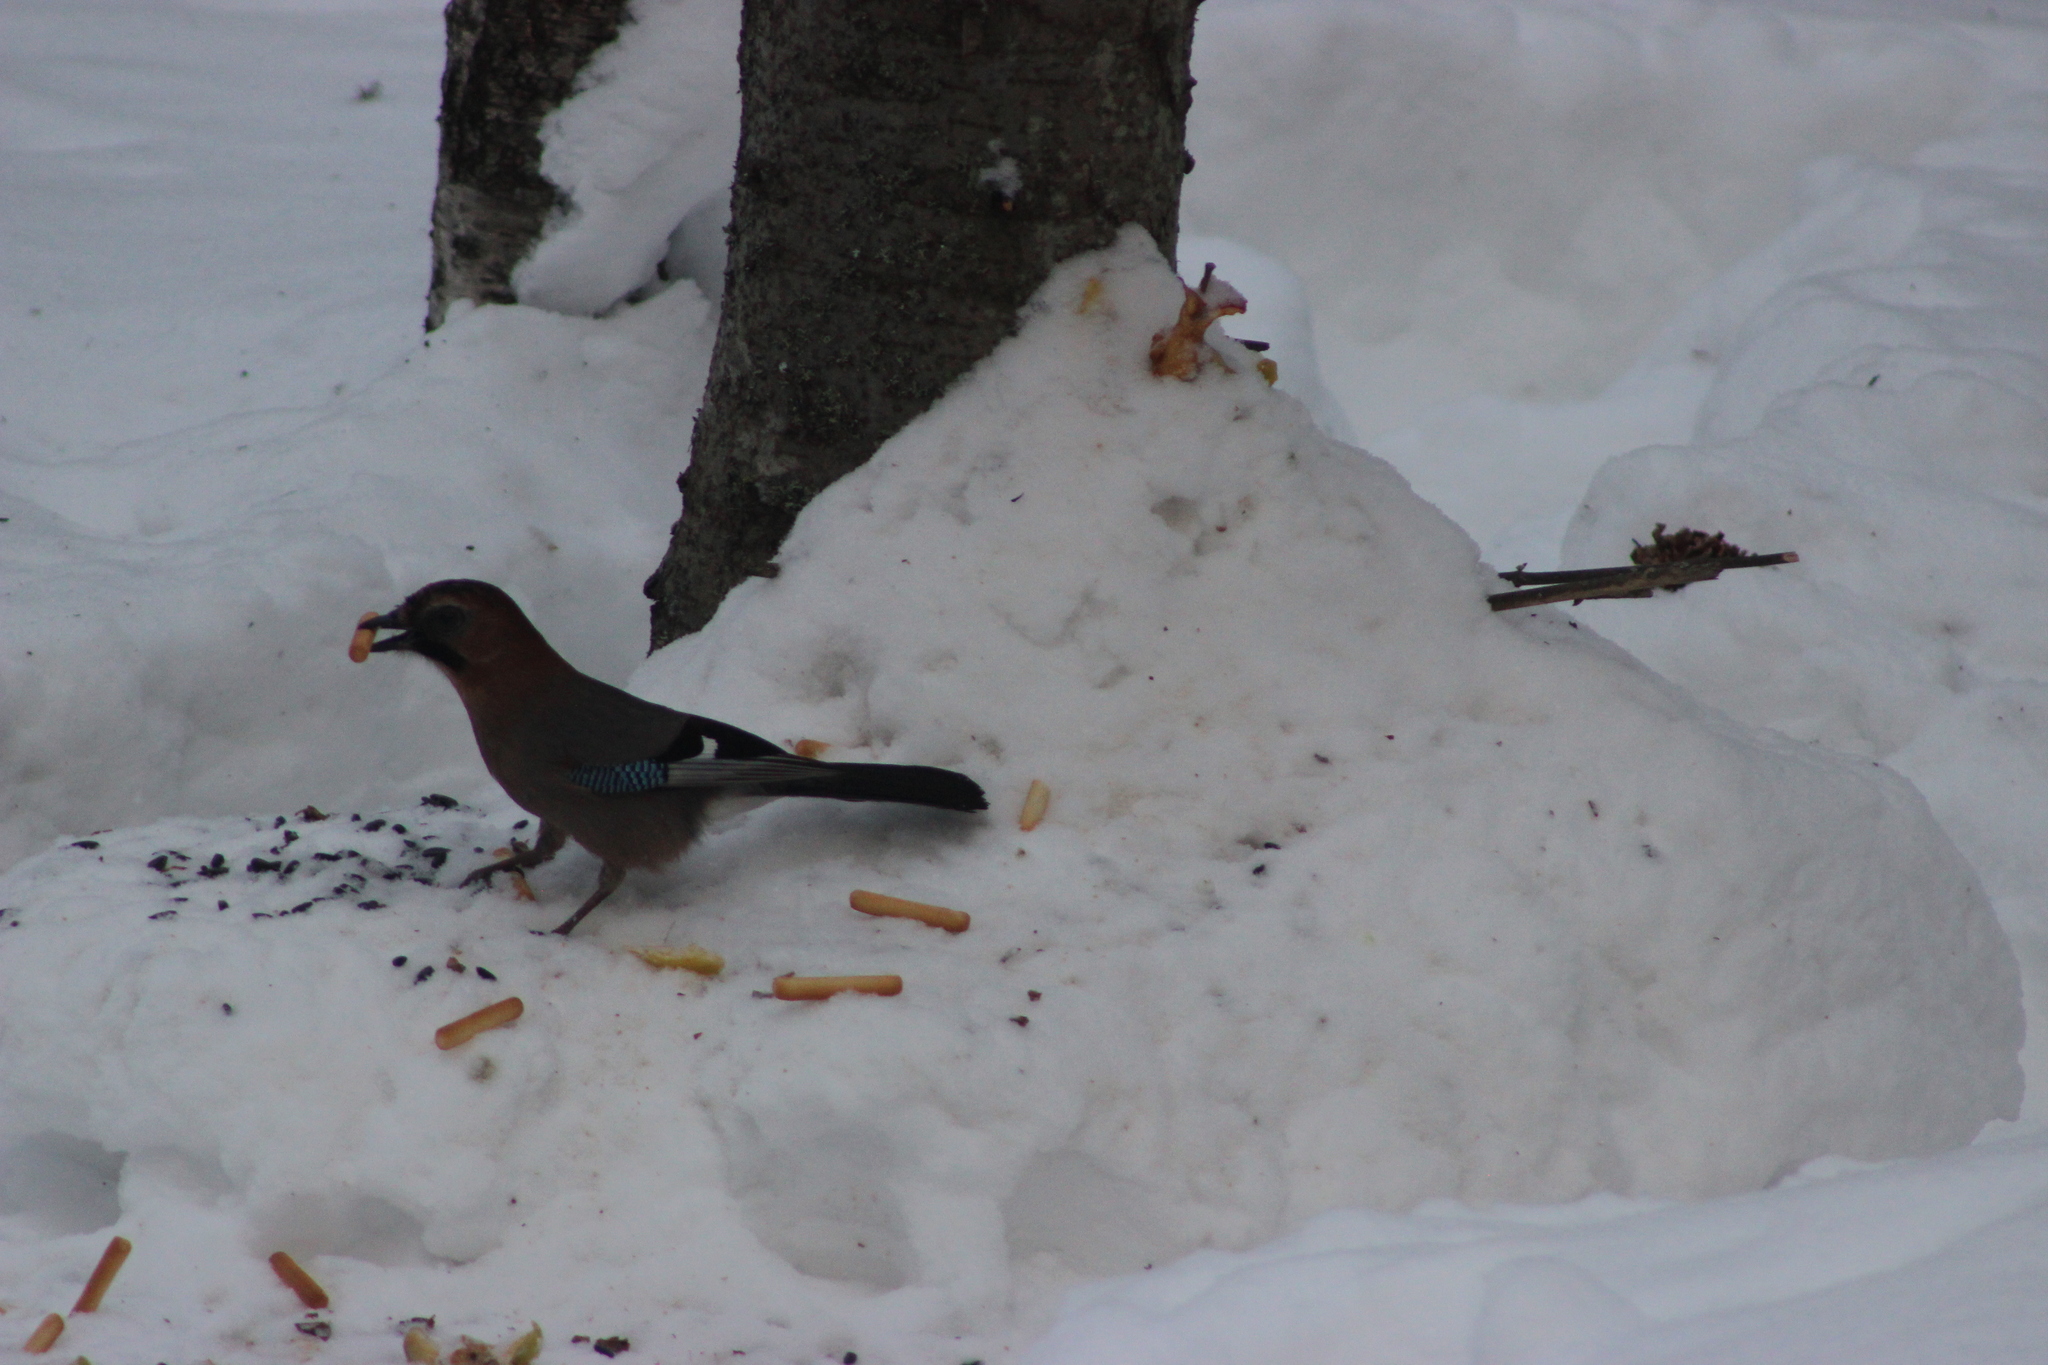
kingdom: Animalia
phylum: Chordata
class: Aves
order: Passeriformes
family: Corvidae
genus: Garrulus
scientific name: Garrulus glandarius
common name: Eurasian jay
